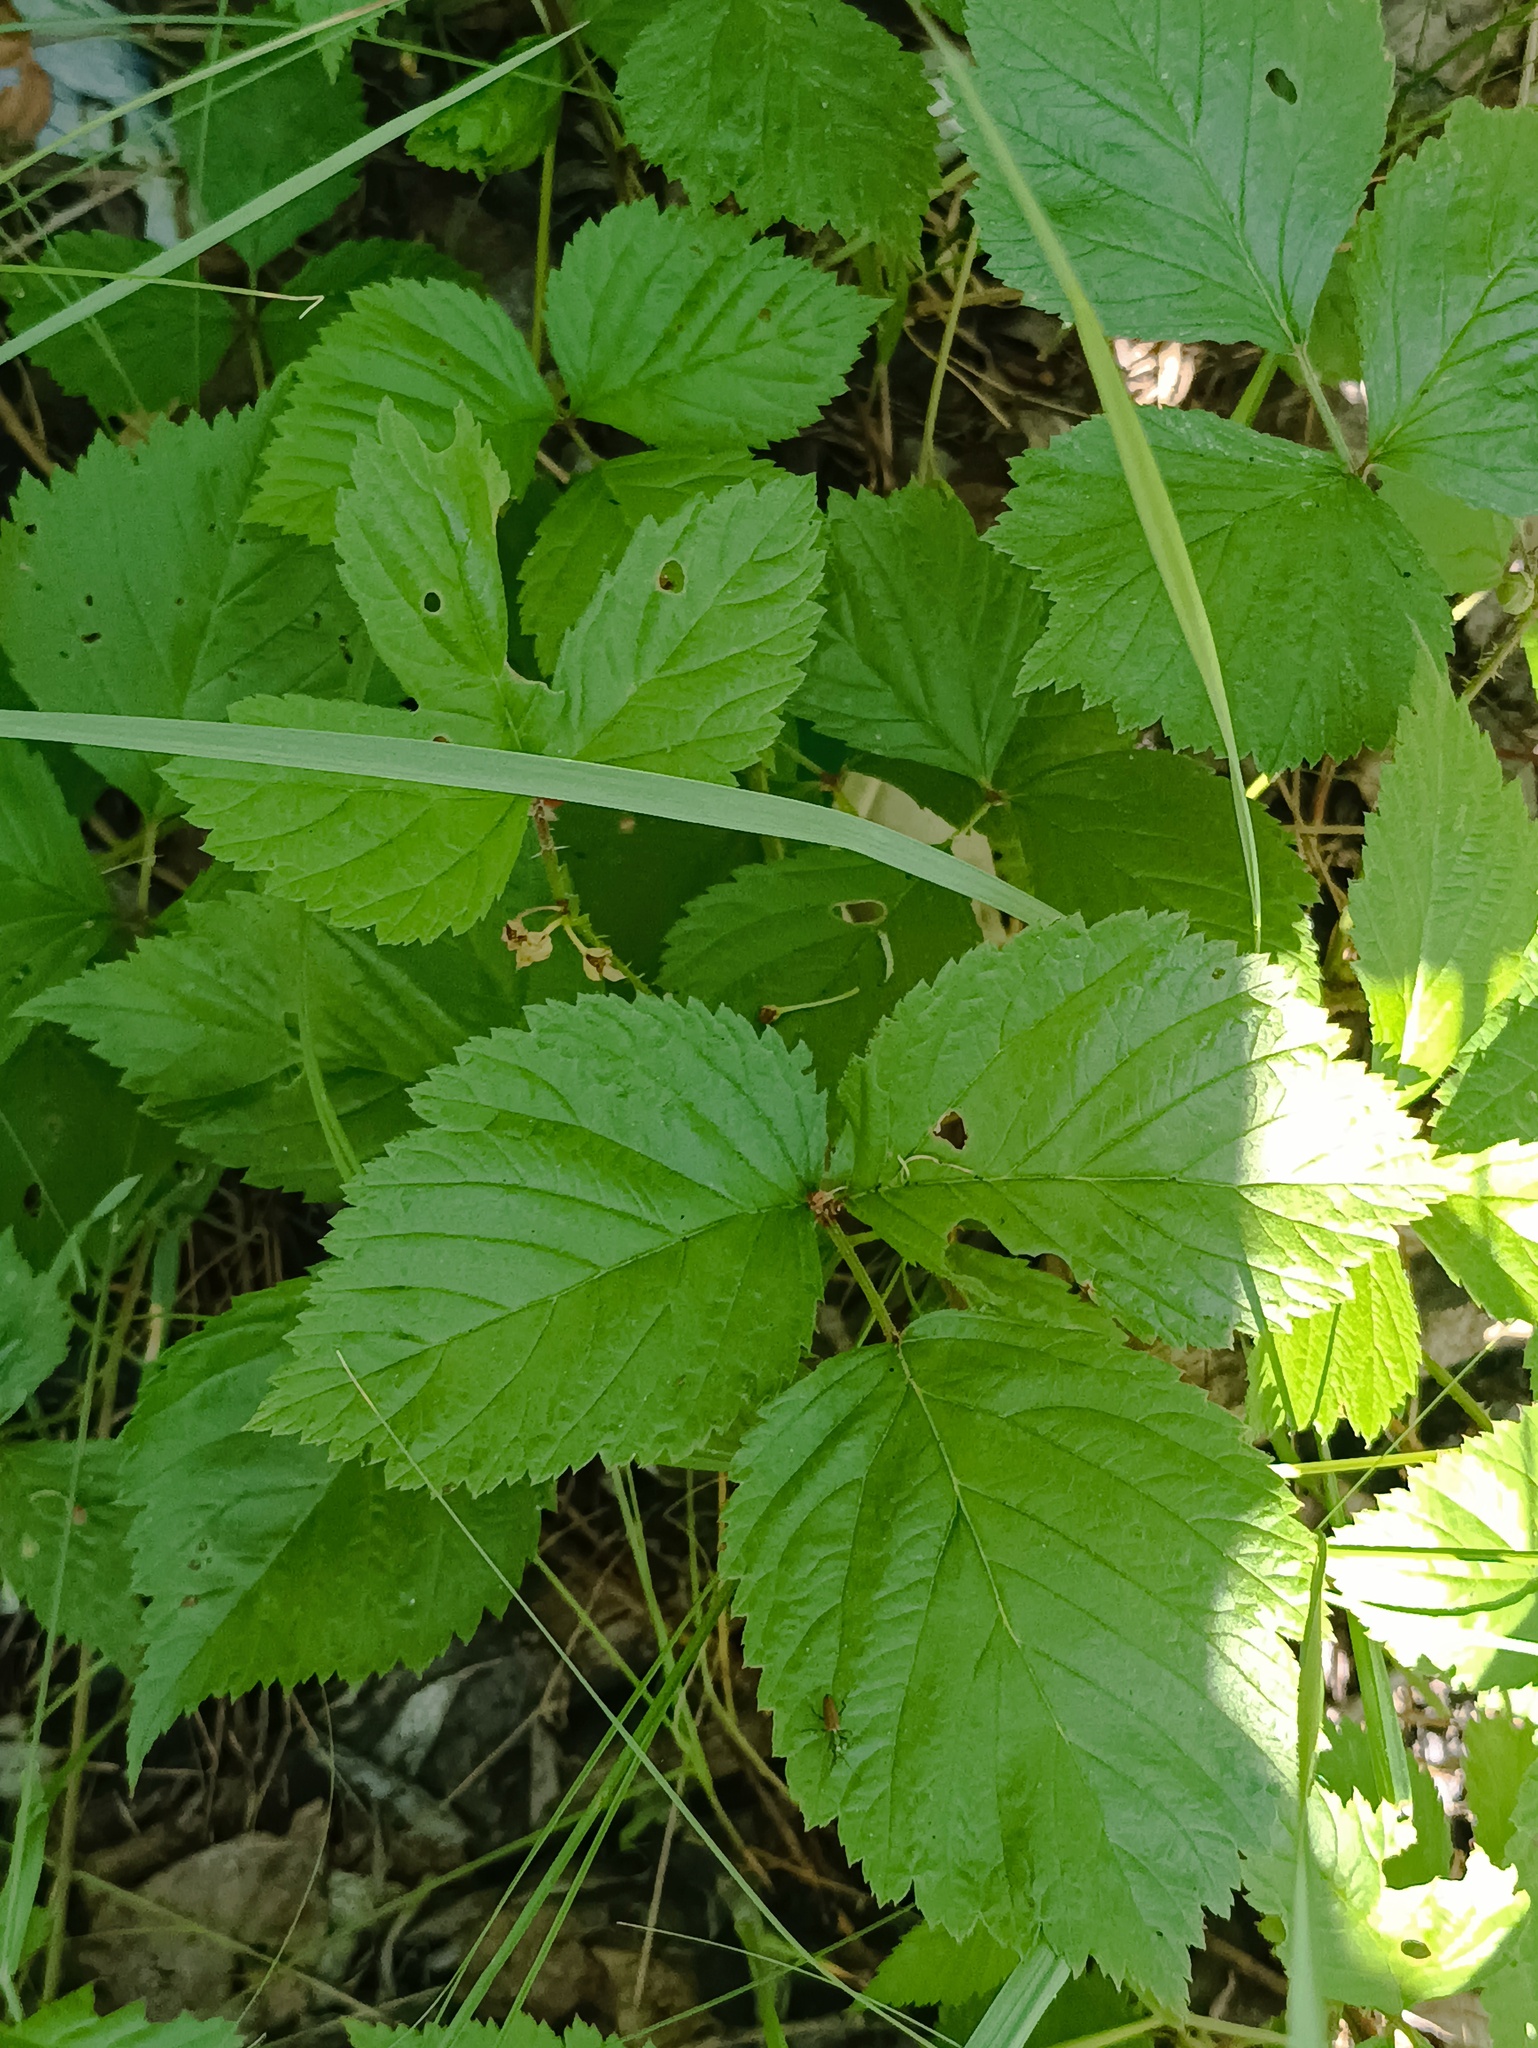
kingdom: Plantae
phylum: Tracheophyta
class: Magnoliopsida
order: Rosales
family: Rosaceae
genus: Rubus
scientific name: Rubus saxatilis
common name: Stone bramble
